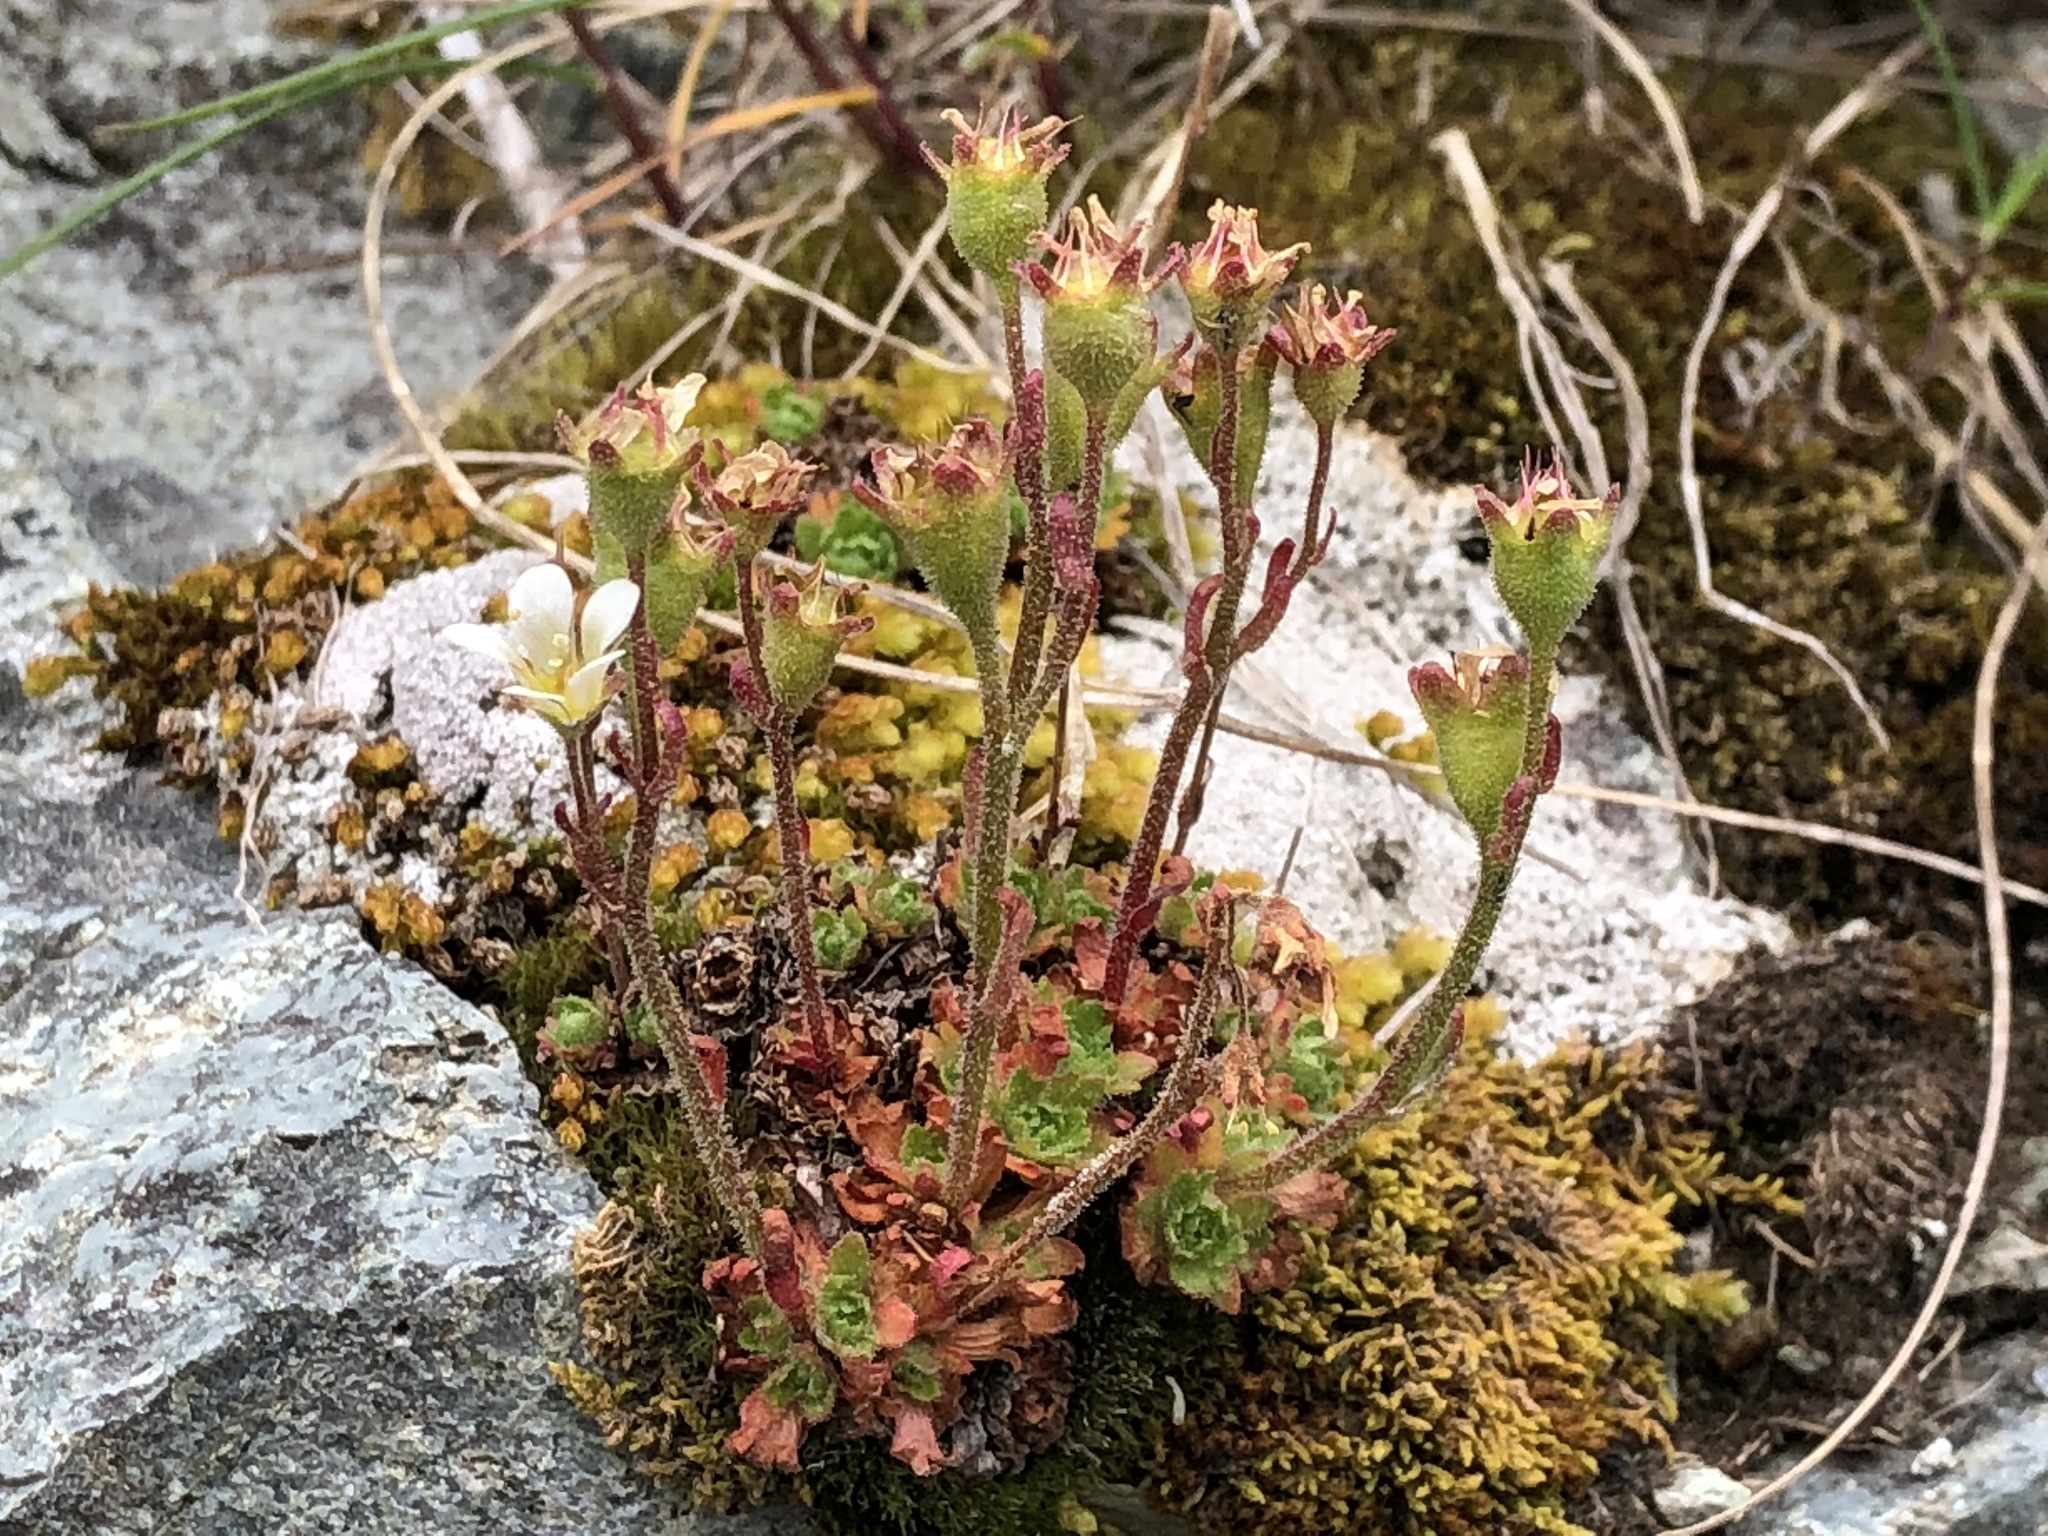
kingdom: Plantae
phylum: Tracheophyta
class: Magnoliopsida
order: Saxifragales
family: Saxifragaceae
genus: Saxifraga
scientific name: Saxifraga cespitosa
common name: Tufted saxifrage
